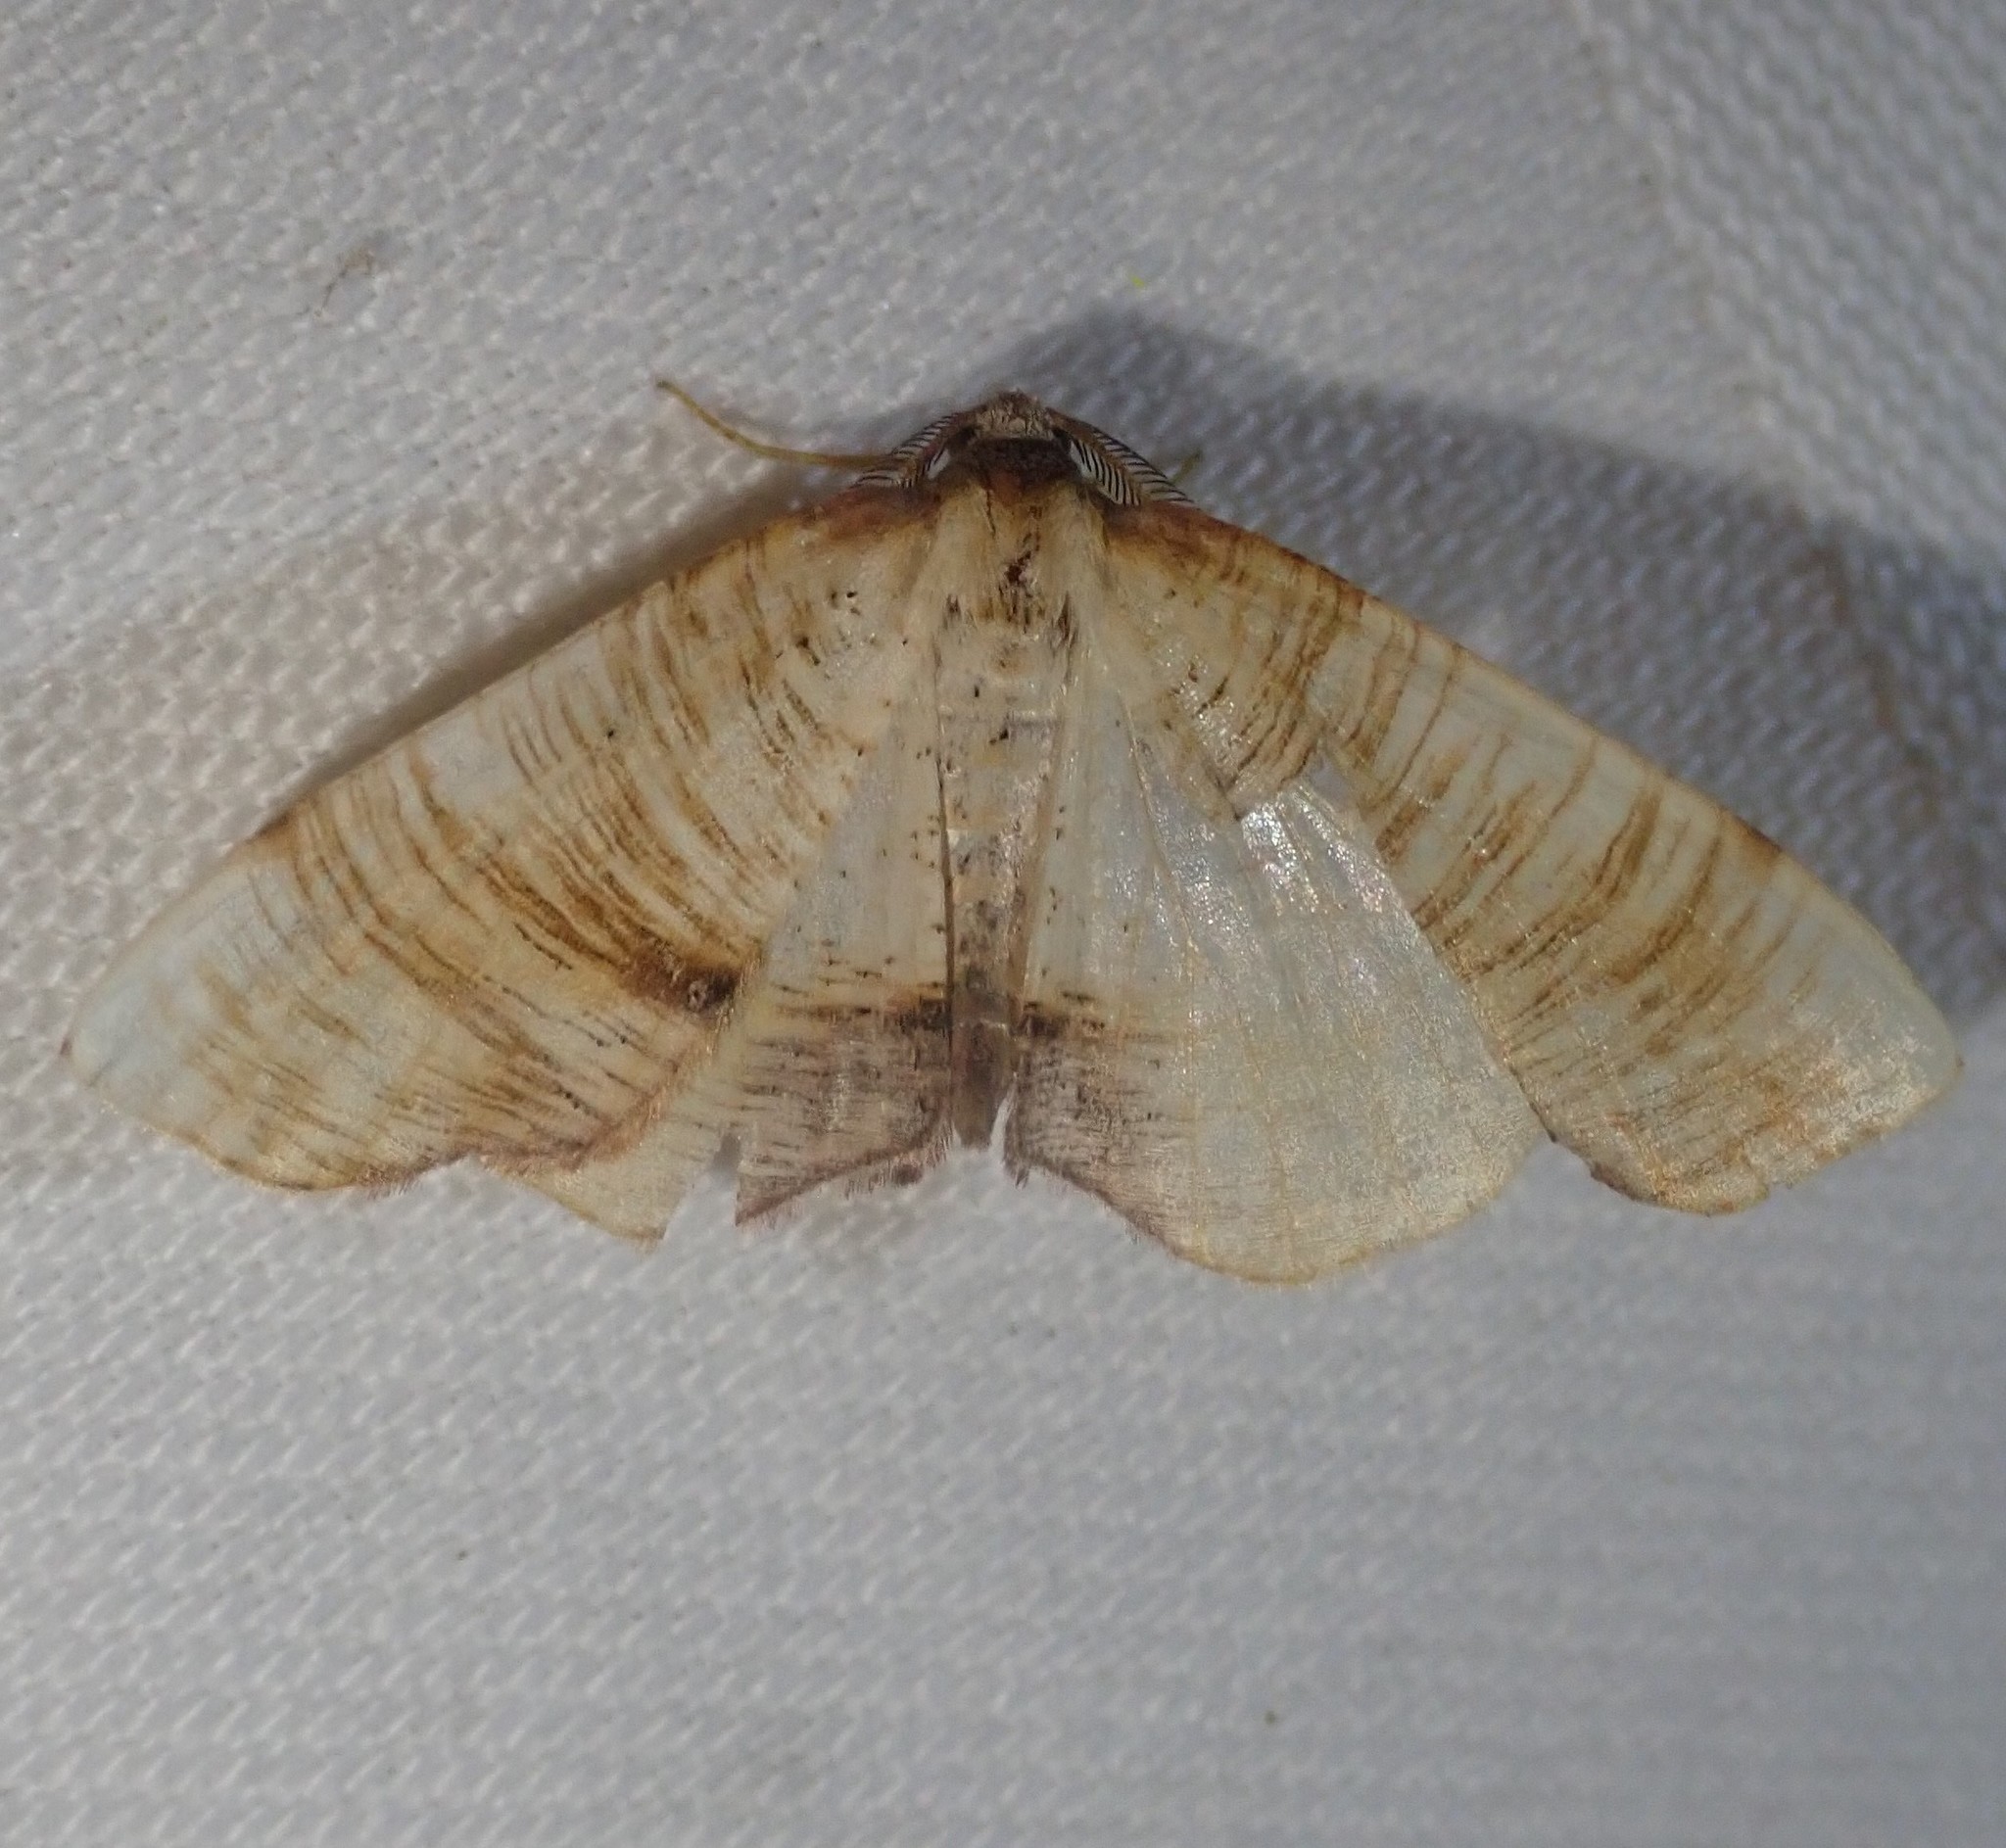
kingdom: Animalia
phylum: Arthropoda
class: Insecta
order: Lepidoptera
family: Geometridae
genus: Plagodis
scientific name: Plagodis dolabraria
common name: Scorched wing
